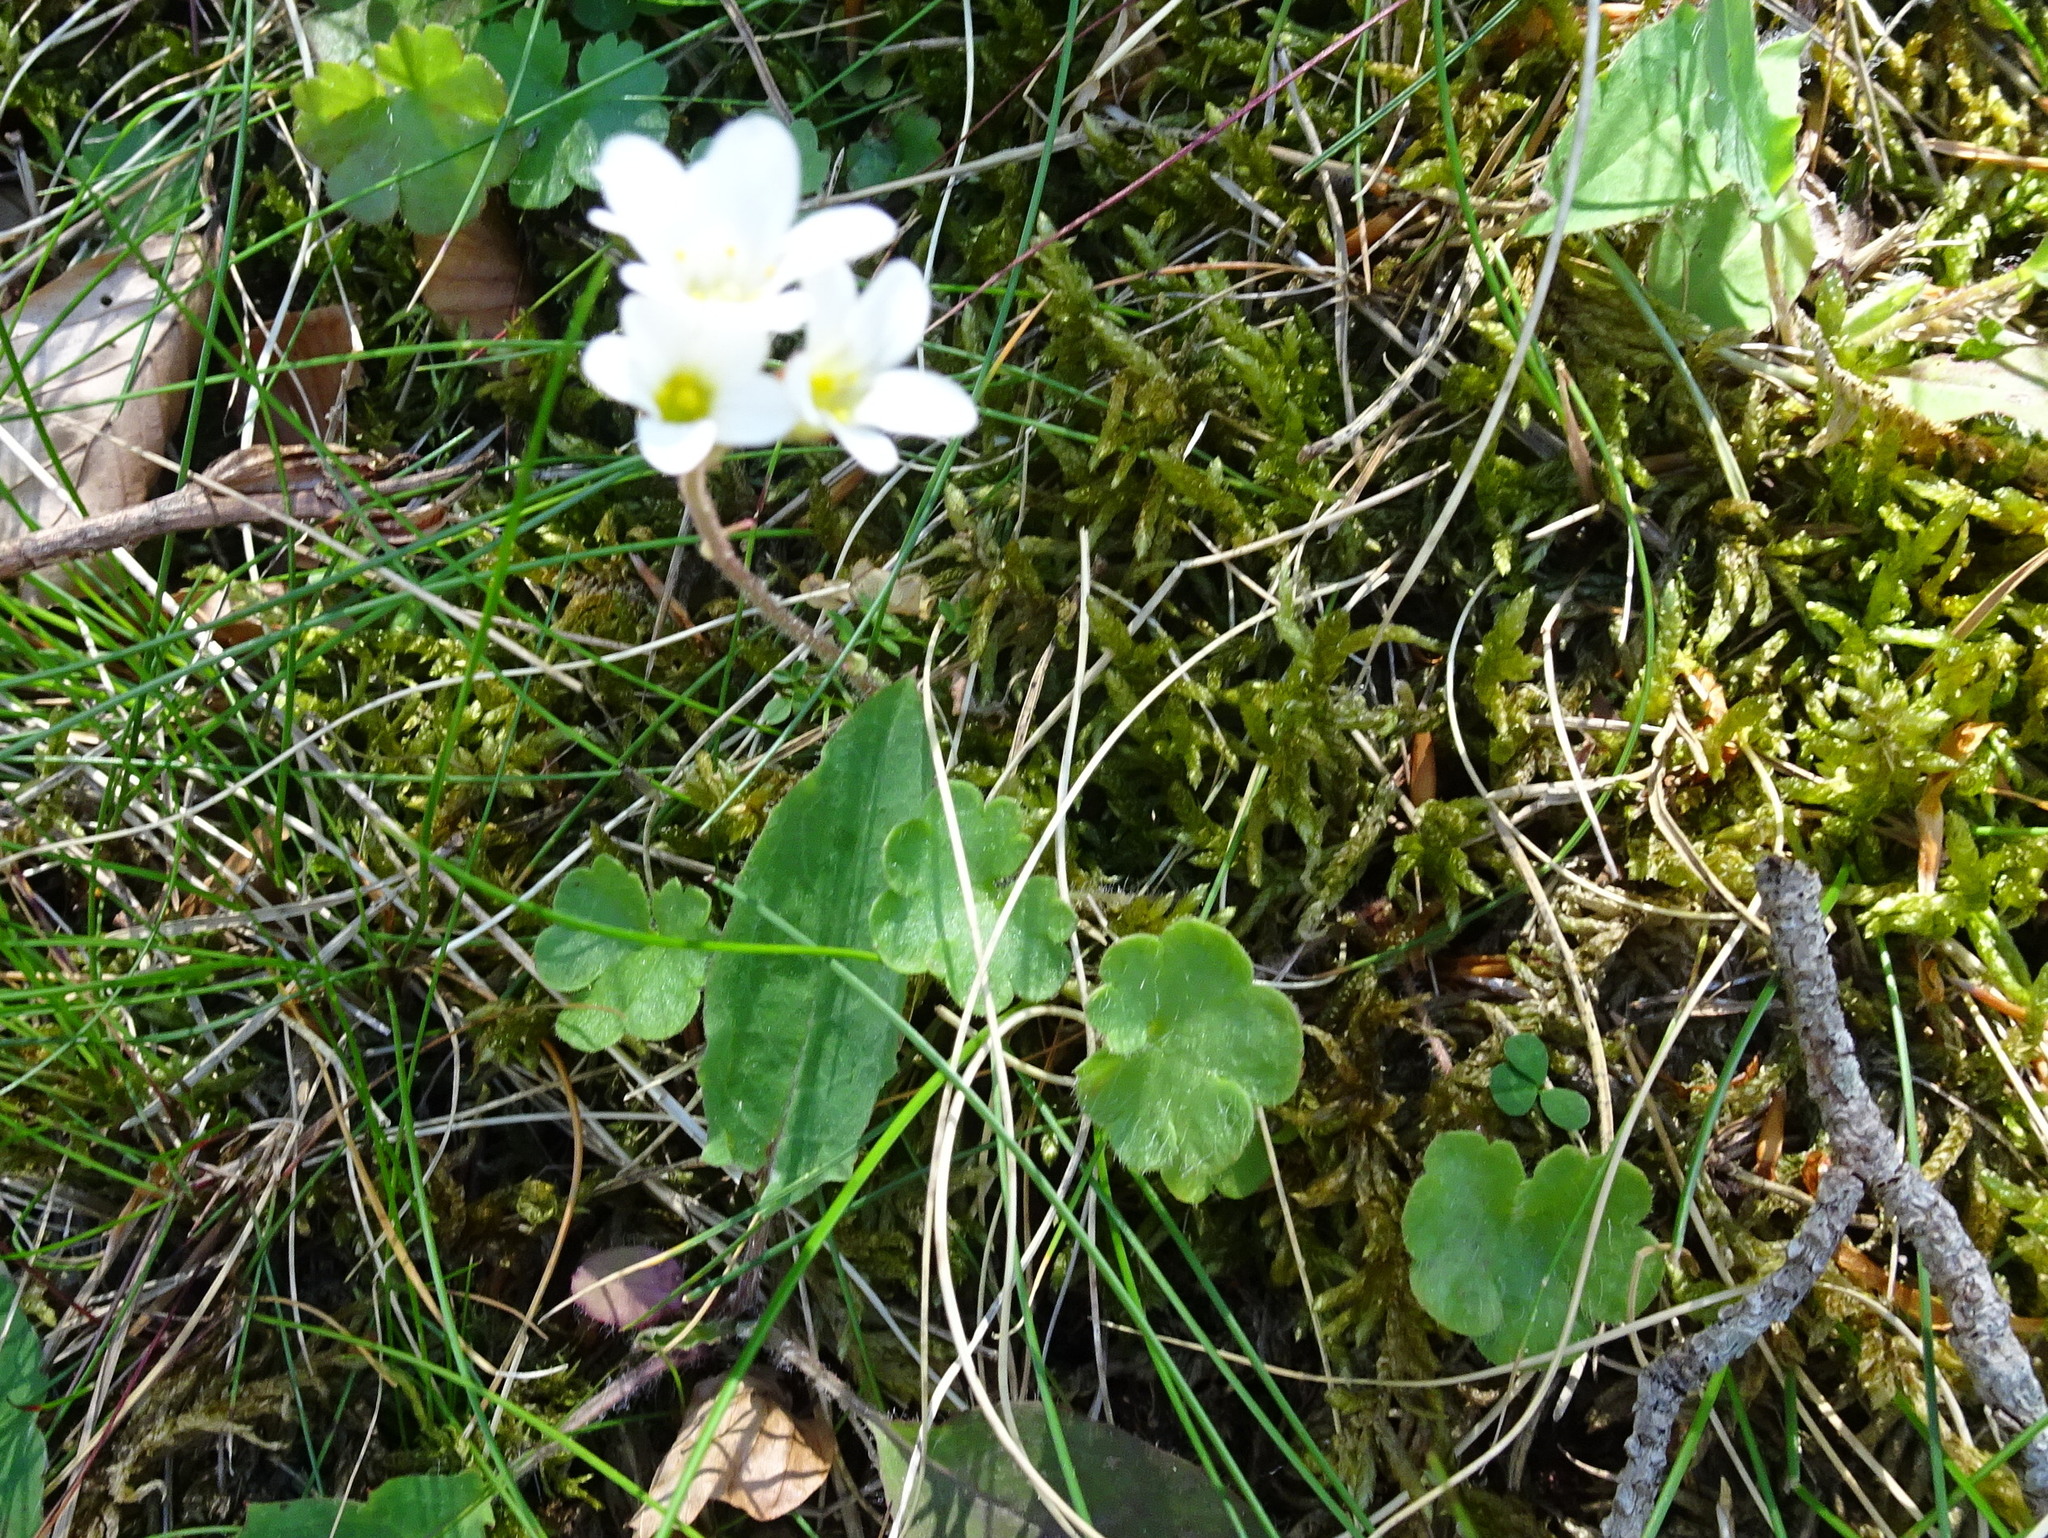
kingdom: Plantae
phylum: Tracheophyta
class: Magnoliopsida
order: Saxifragales
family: Saxifragaceae
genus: Saxifraga
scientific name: Saxifraga granulata
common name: Meadow saxifrage
